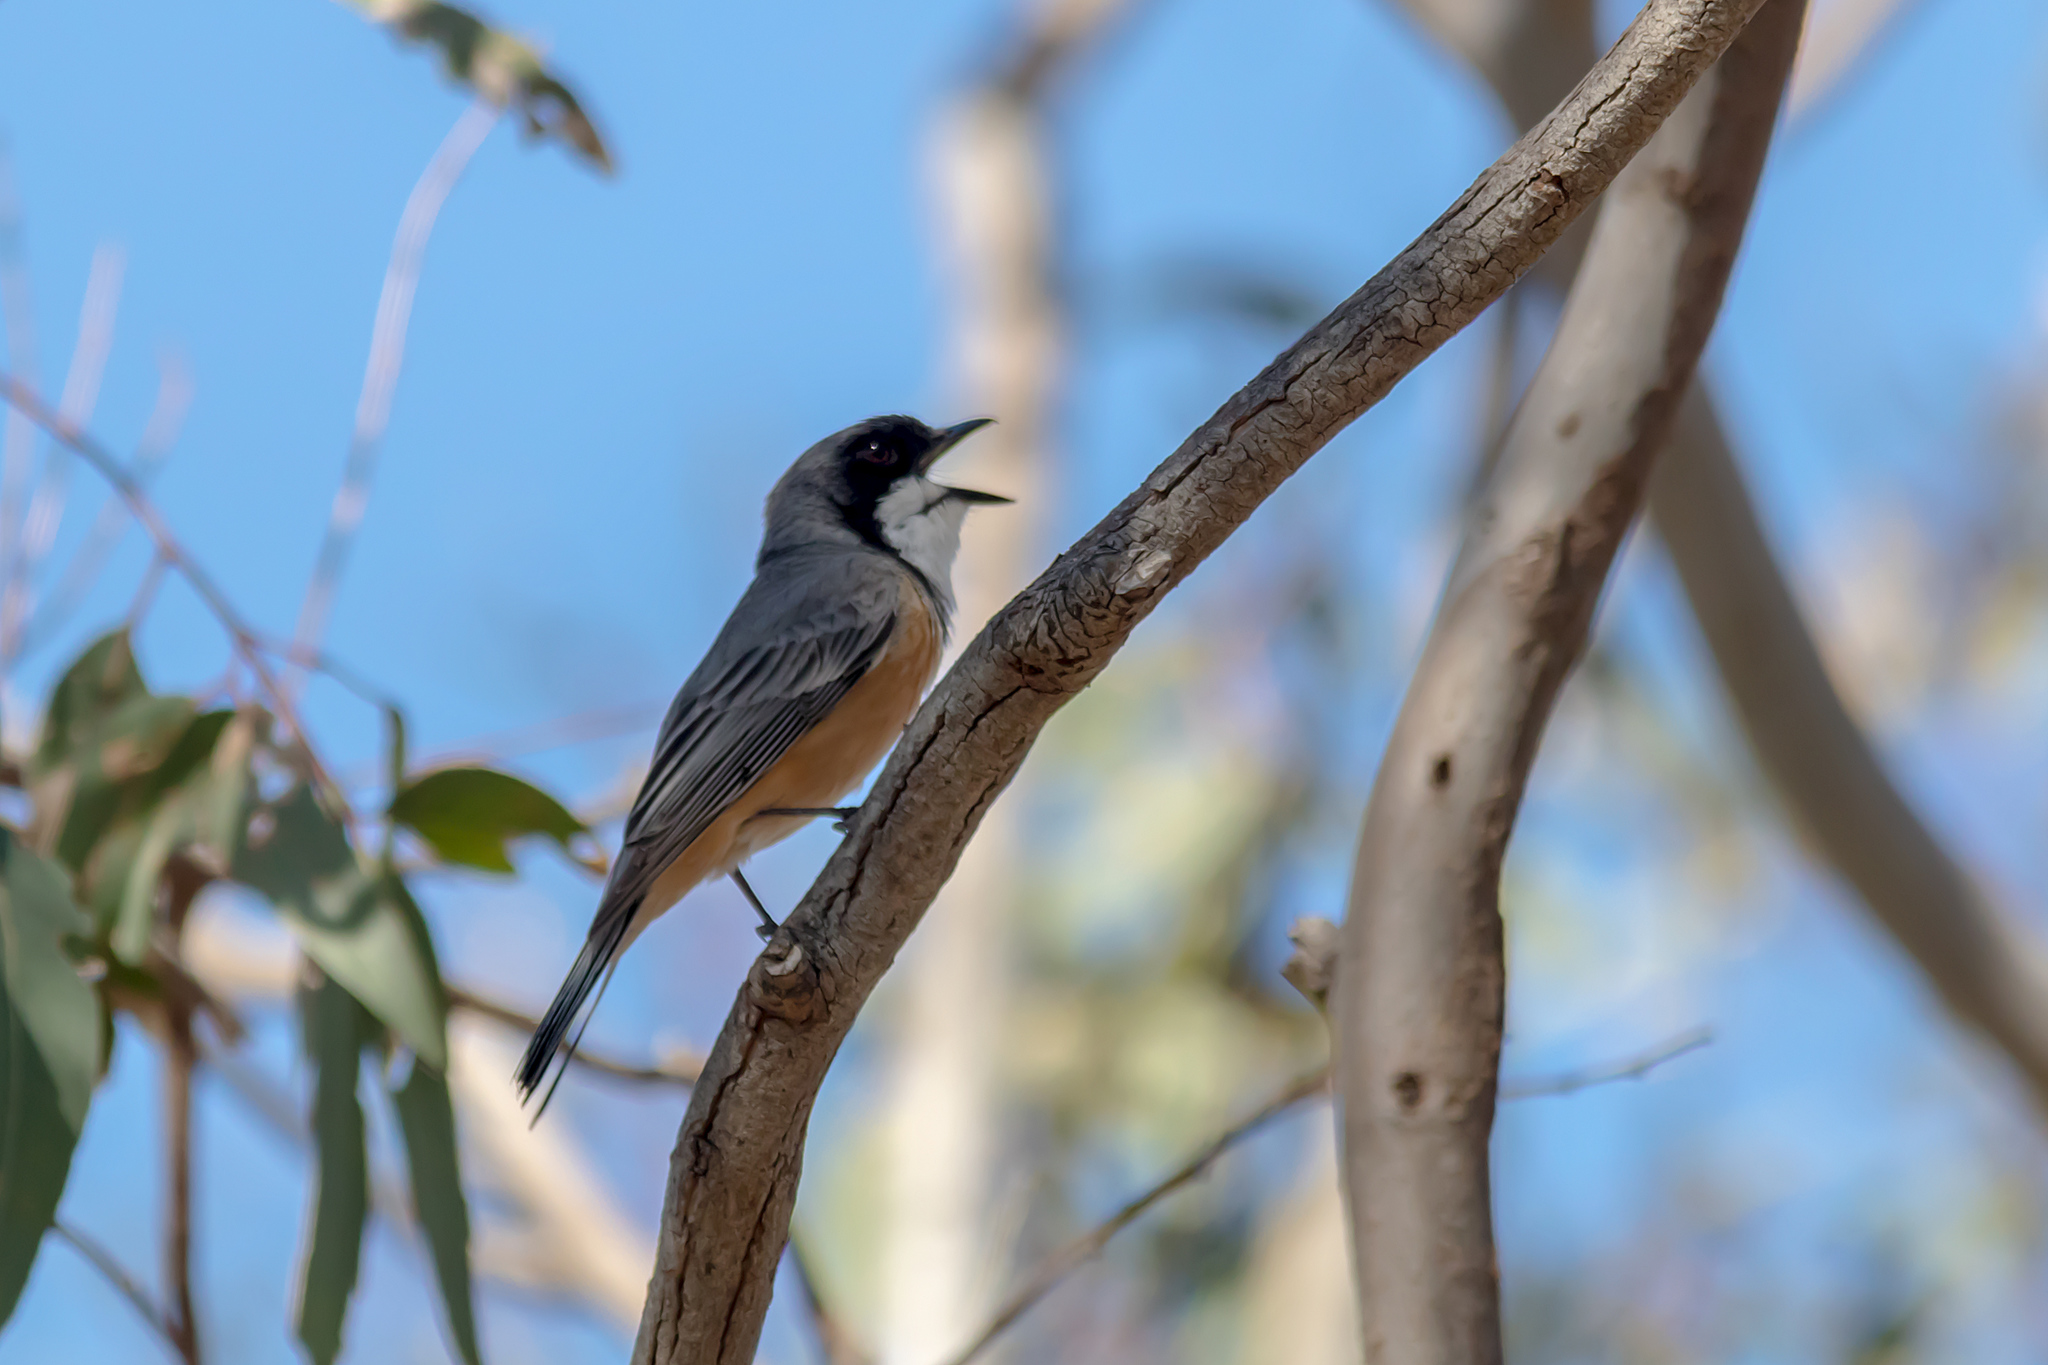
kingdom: Animalia
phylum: Chordata
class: Aves
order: Passeriformes
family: Pachycephalidae
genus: Pachycephala
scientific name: Pachycephala rufiventris
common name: Rufous whistler
